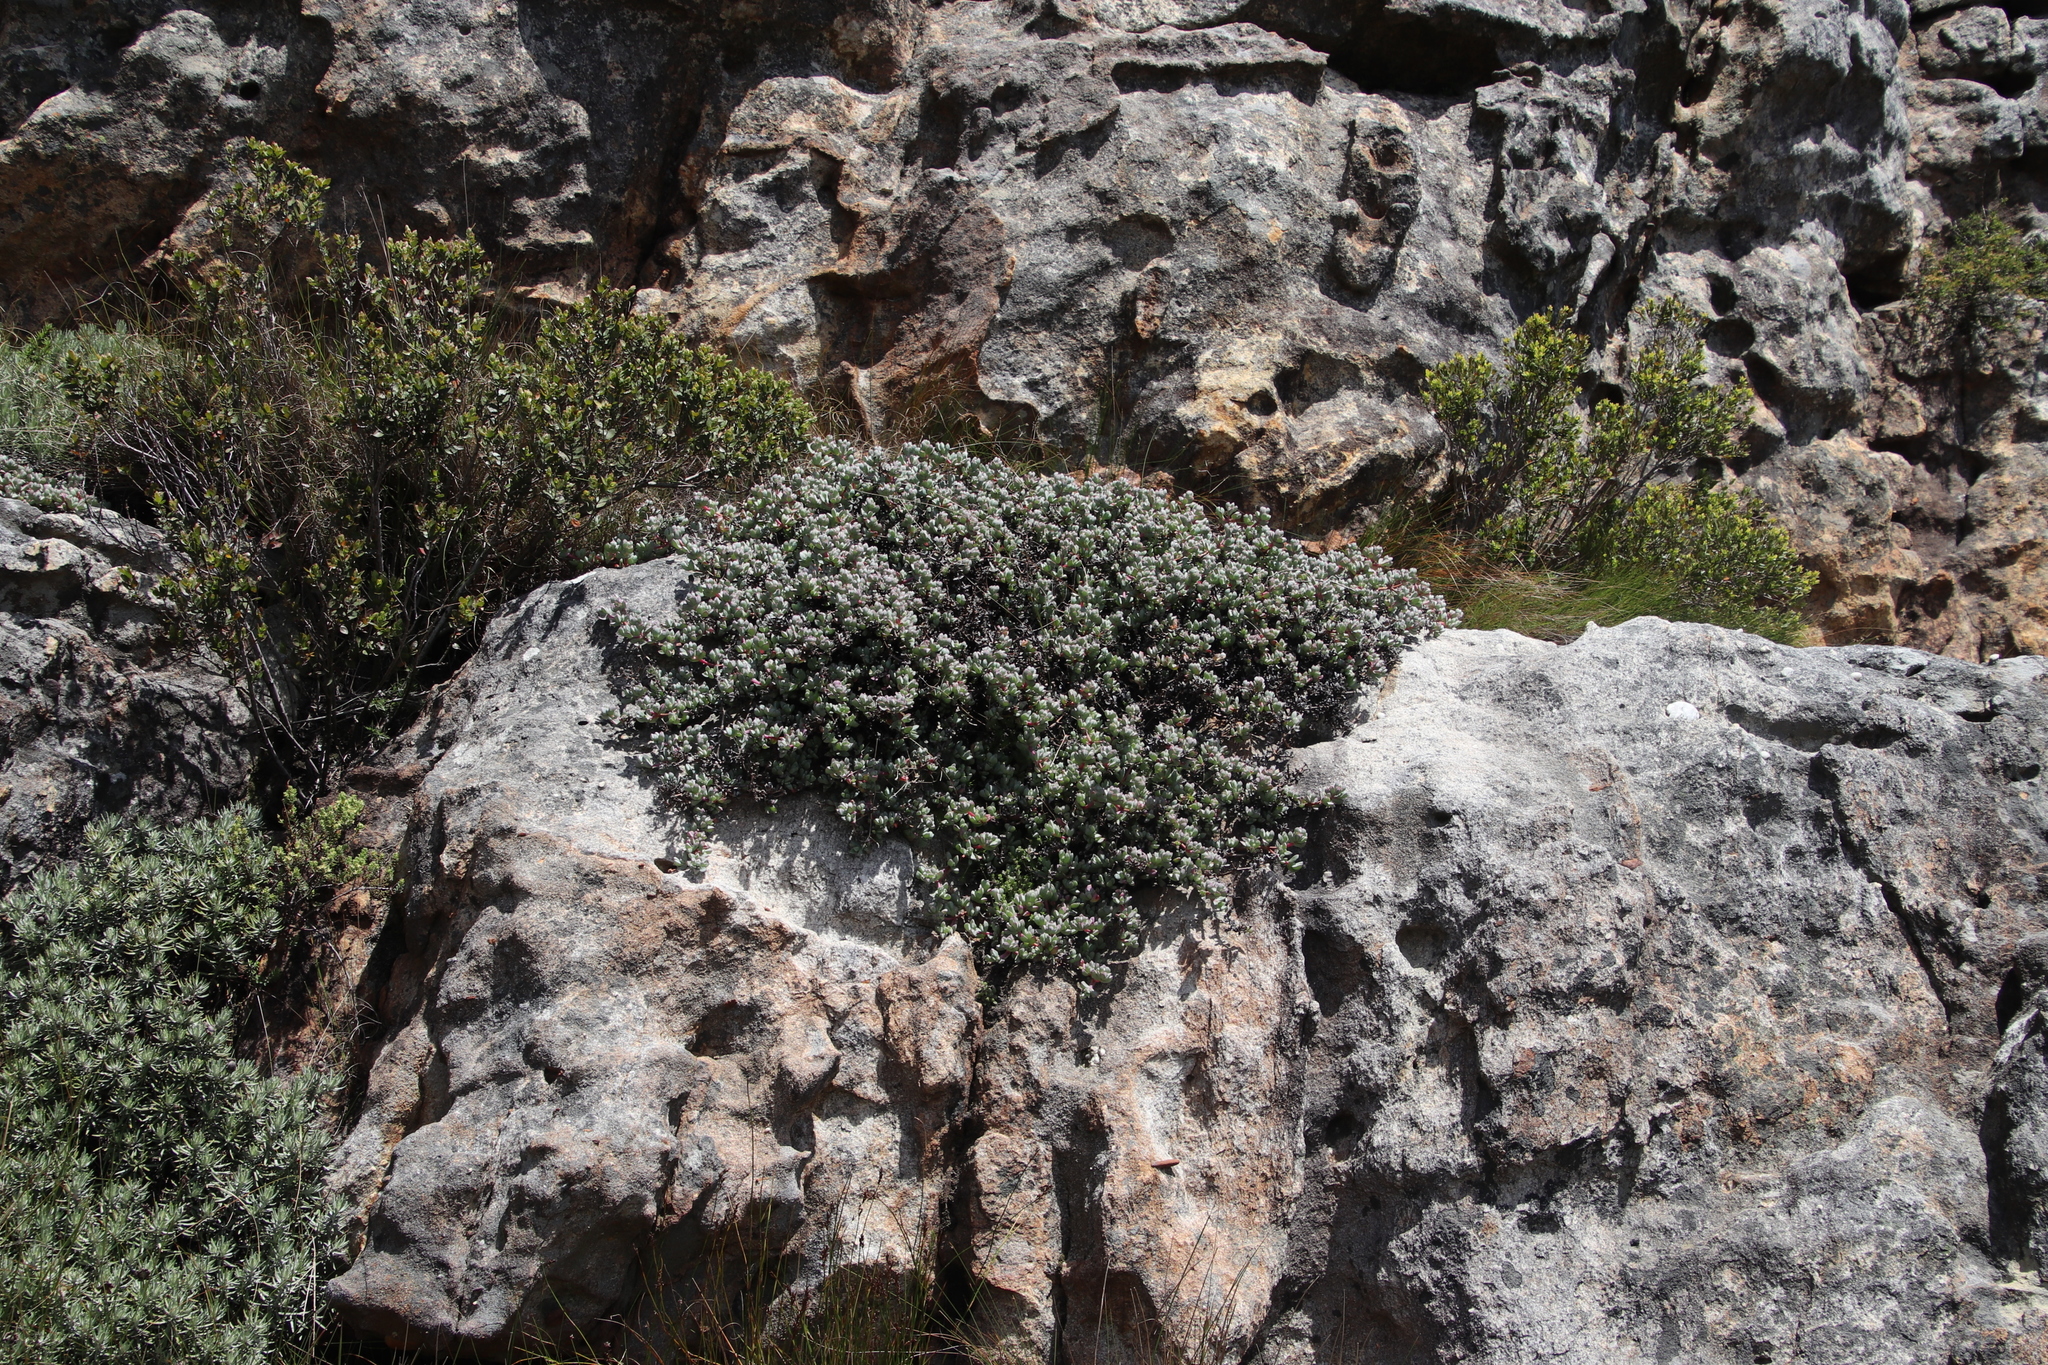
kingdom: Plantae
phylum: Tracheophyta
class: Magnoliopsida
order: Caryophyllales
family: Aizoaceae
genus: Oscularia
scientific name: Oscularia caulescens
